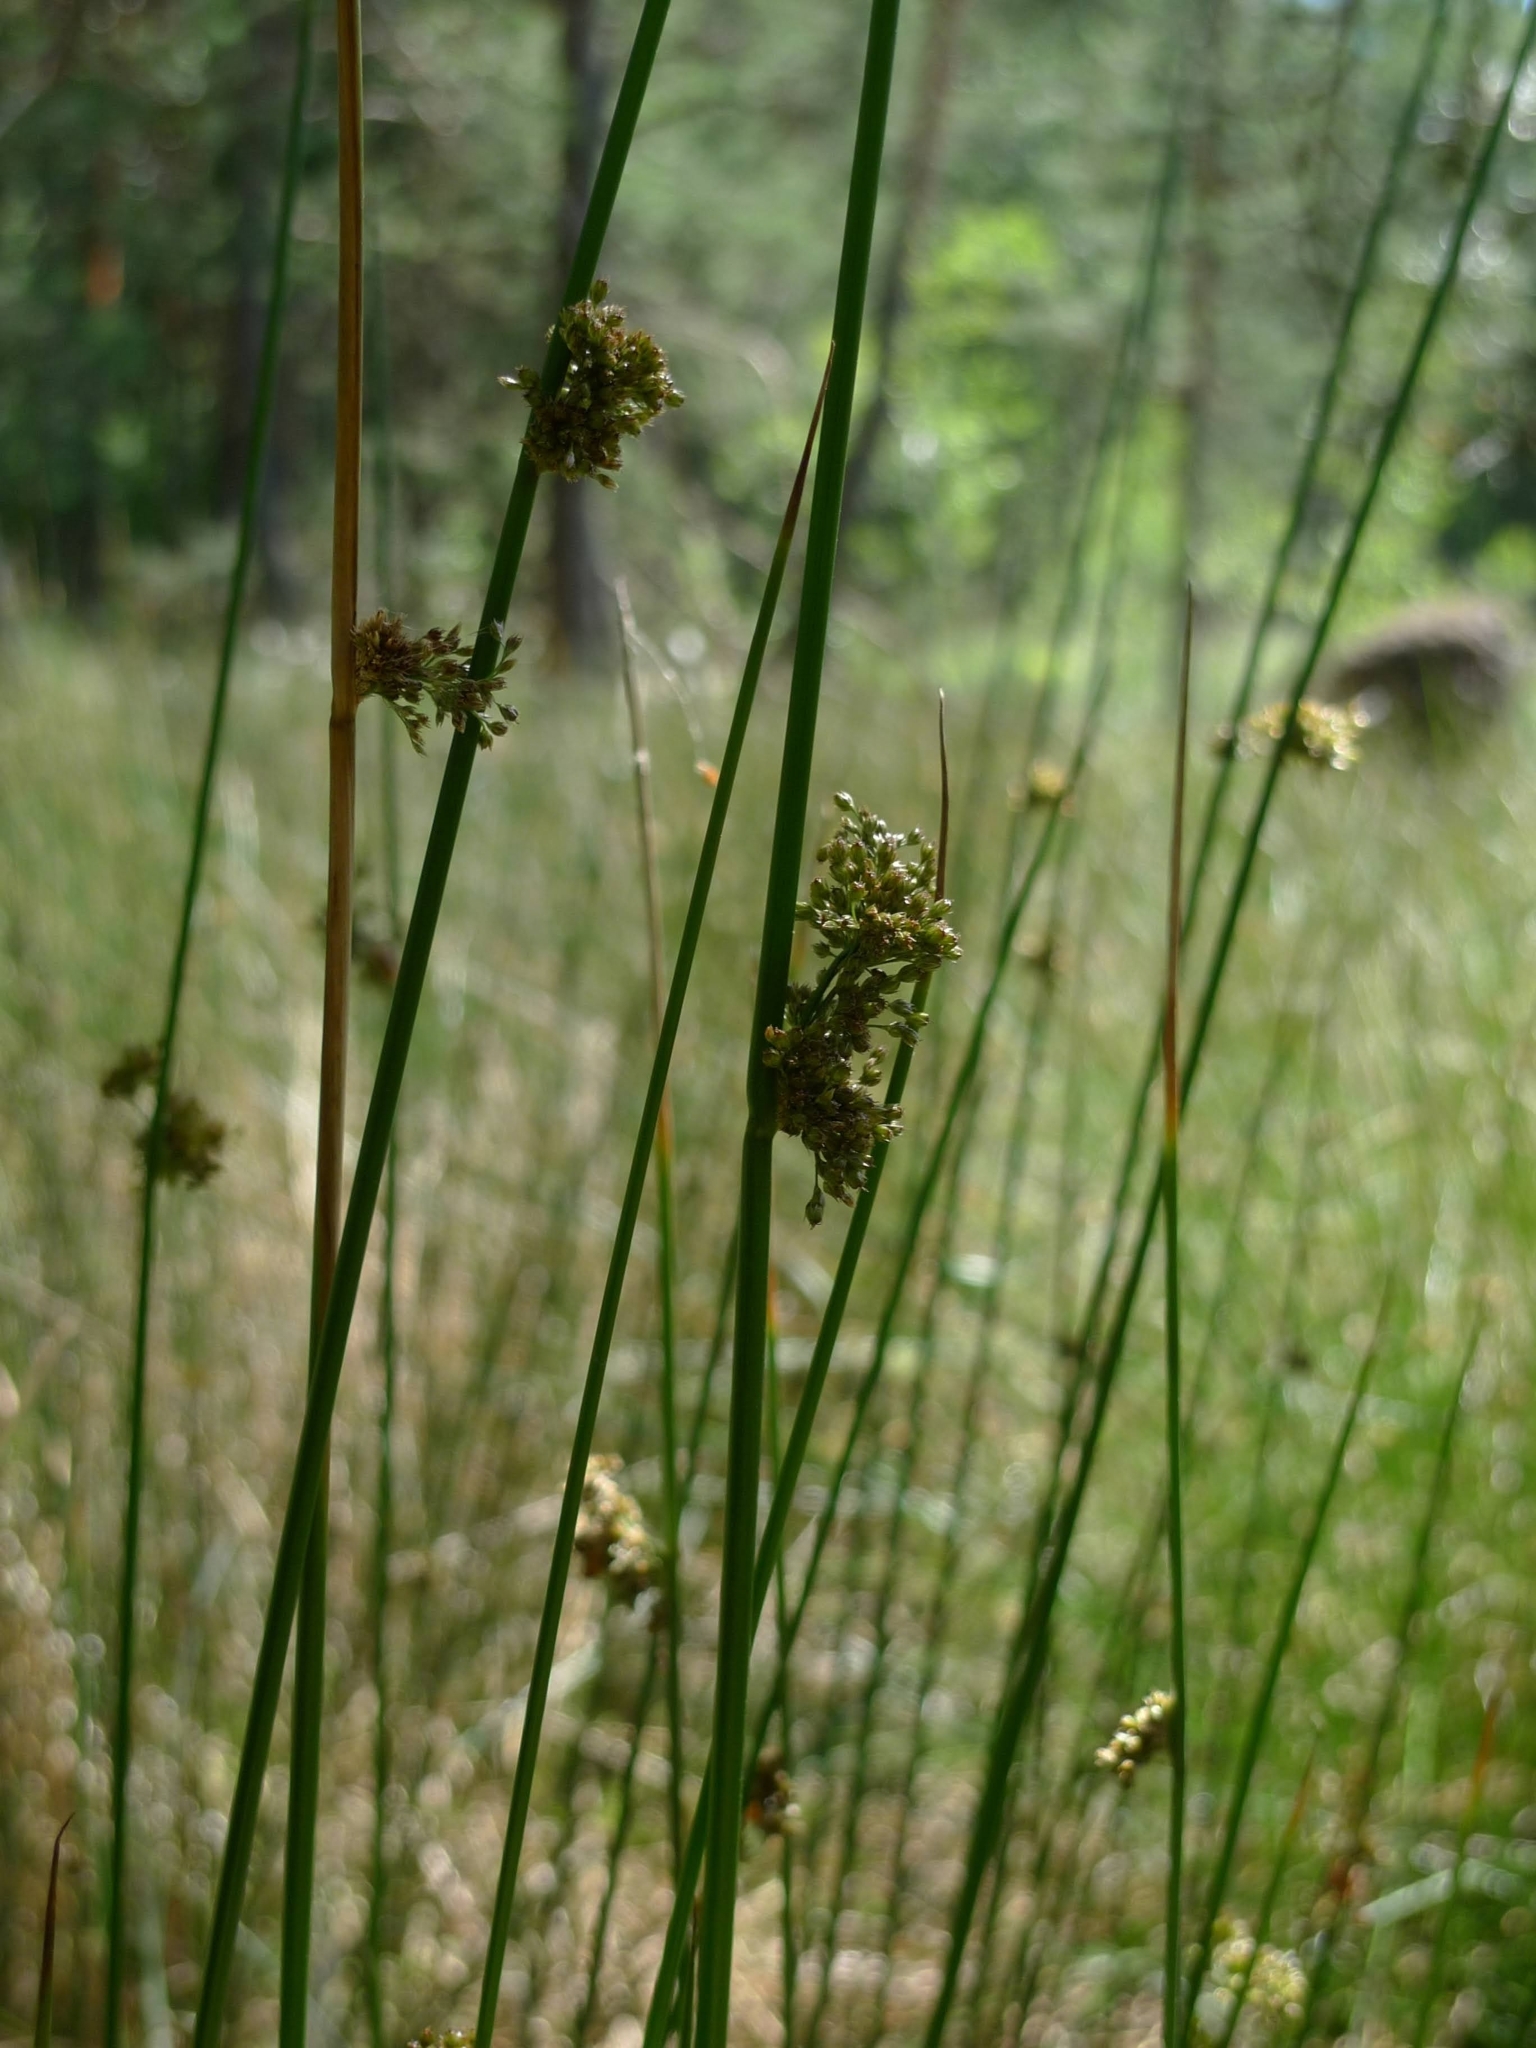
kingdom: Plantae
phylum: Tracheophyta
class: Liliopsida
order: Poales
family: Juncaceae
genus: Juncus
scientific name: Juncus effusus
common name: Soft rush
